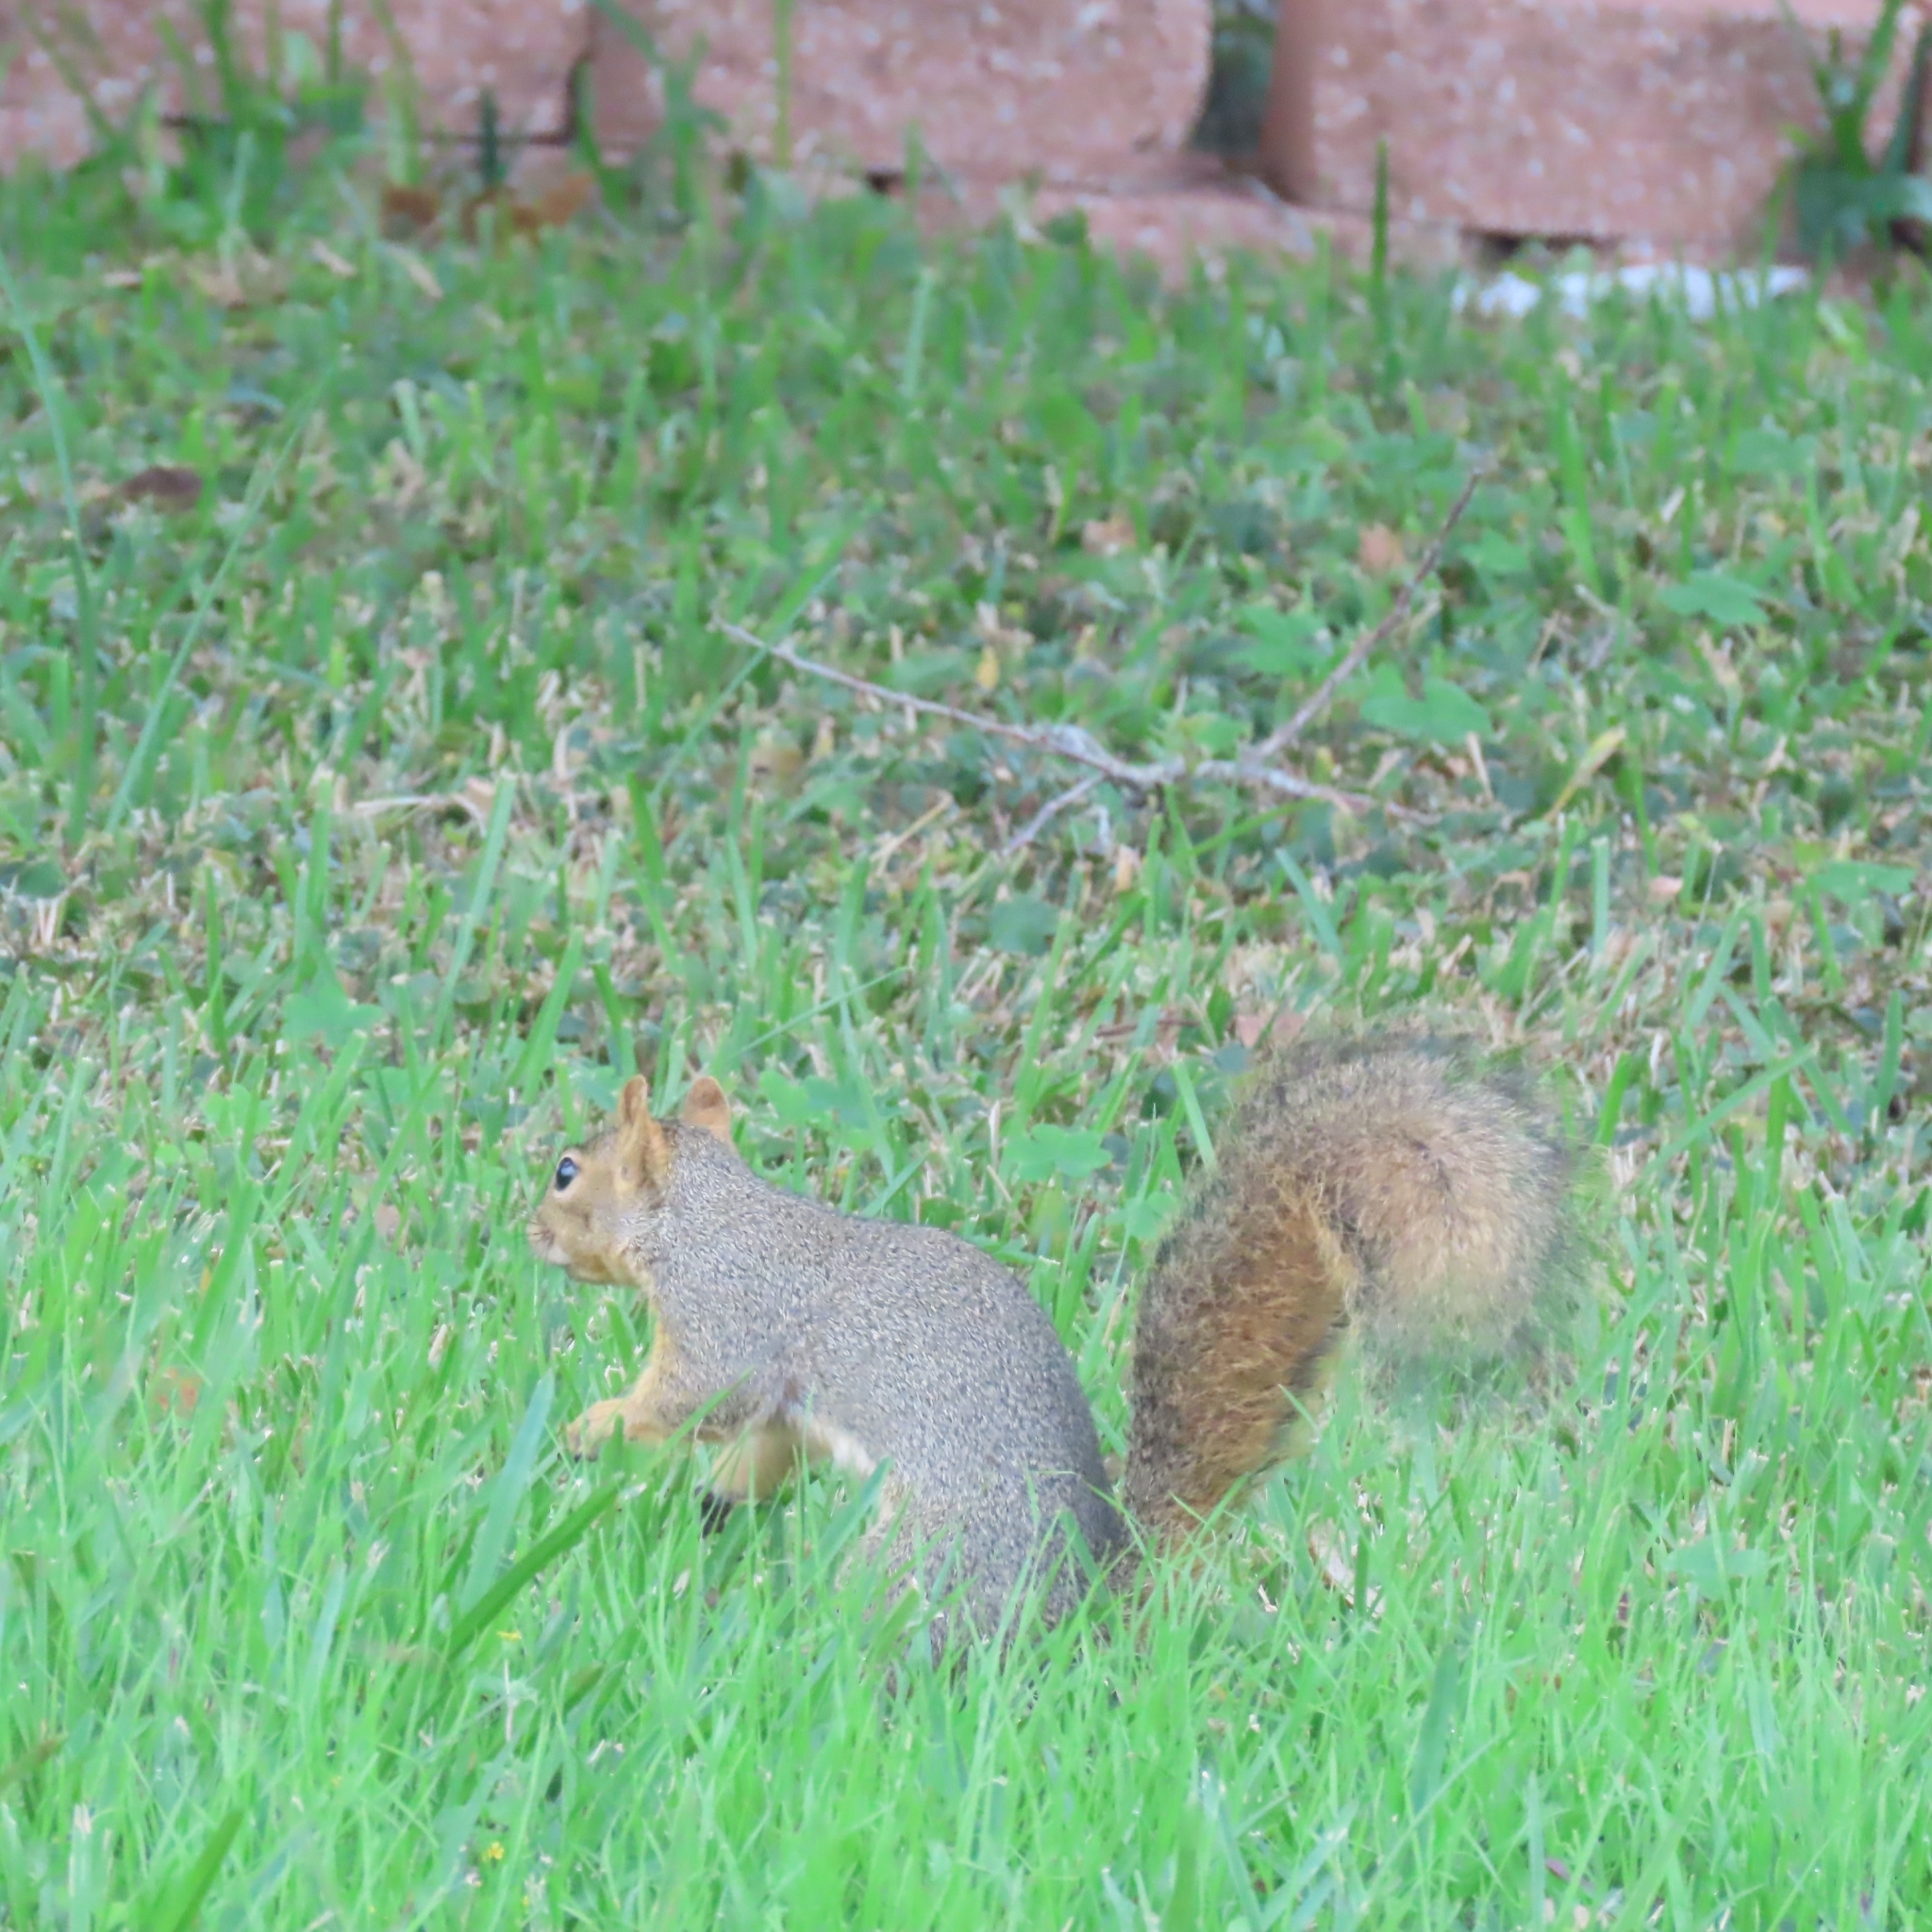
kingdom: Animalia
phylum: Chordata
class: Mammalia
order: Rodentia
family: Sciuridae
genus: Sciurus
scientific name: Sciurus niger
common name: Fox squirrel
